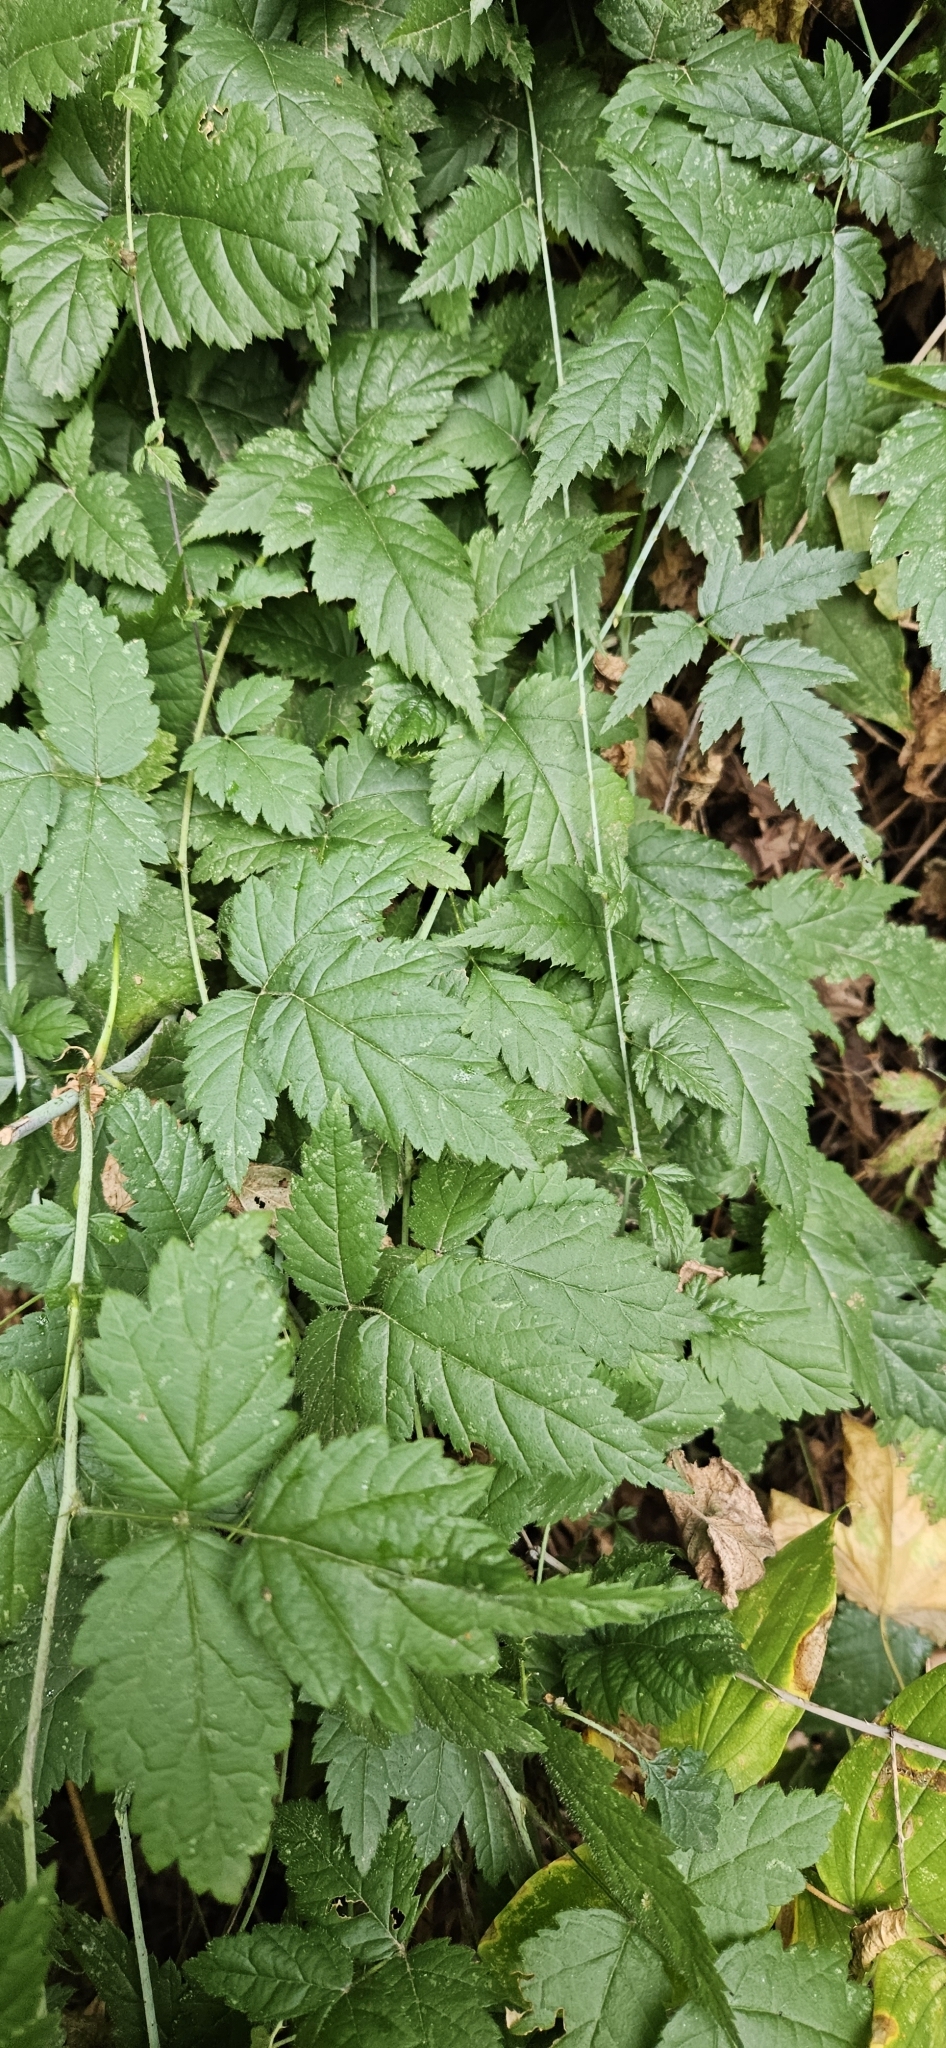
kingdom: Plantae
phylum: Tracheophyta
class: Magnoliopsida
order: Rosales
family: Rosaceae
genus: Rubus
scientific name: Rubus ursinus
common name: Pacific blackberry
